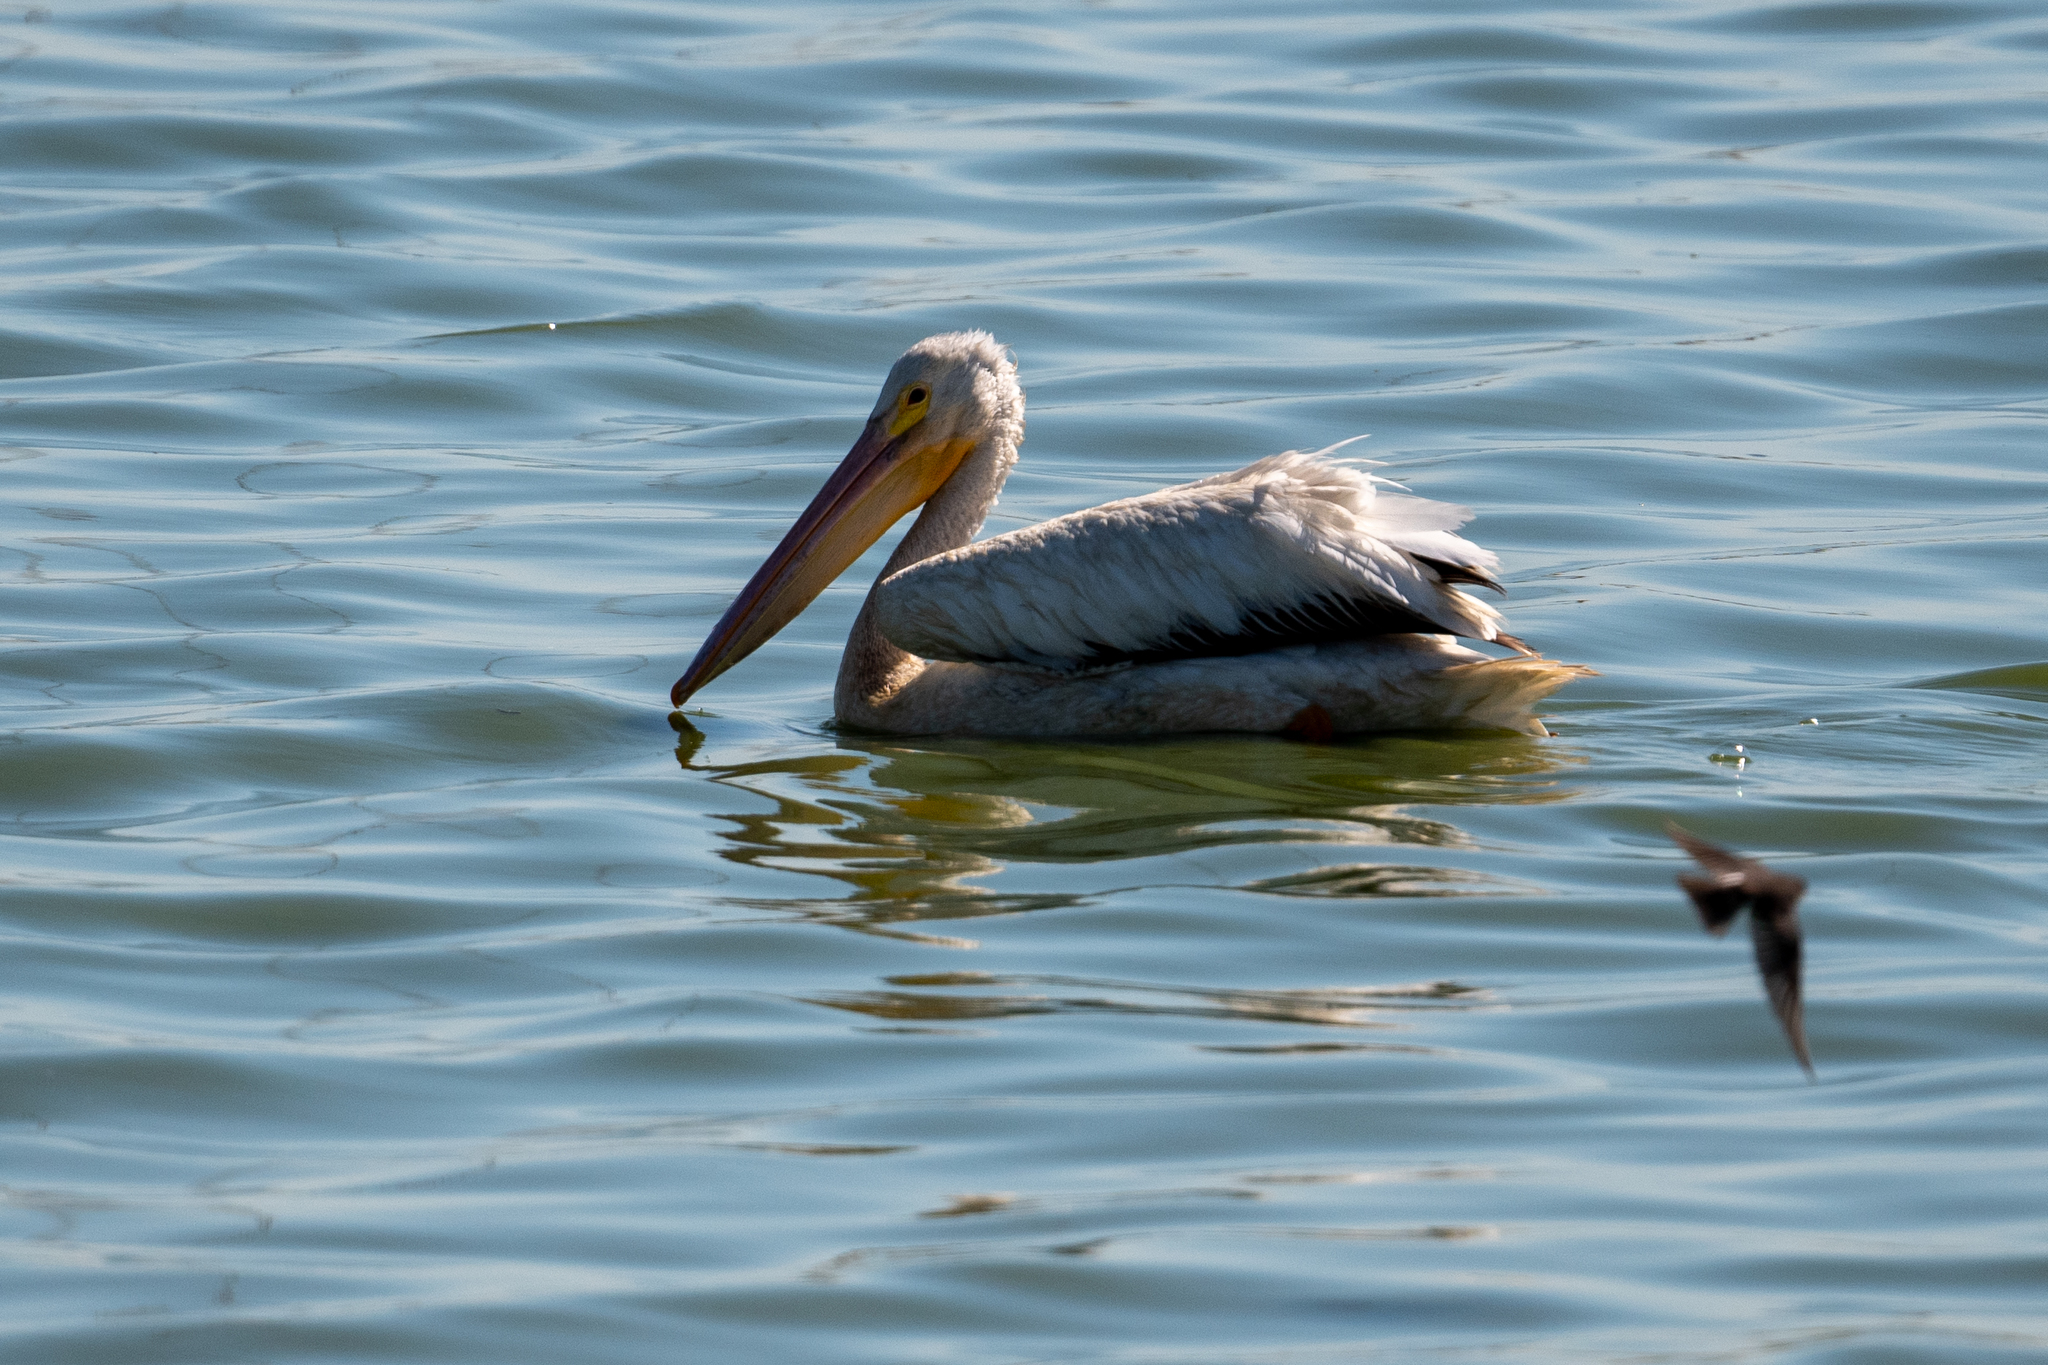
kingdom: Animalia
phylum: Chordata
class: Aves
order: Pelecaniformes
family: Pelecanidae
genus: Pelecanus
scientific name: Pelecanus erythrorhynchos
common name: American white pelican
